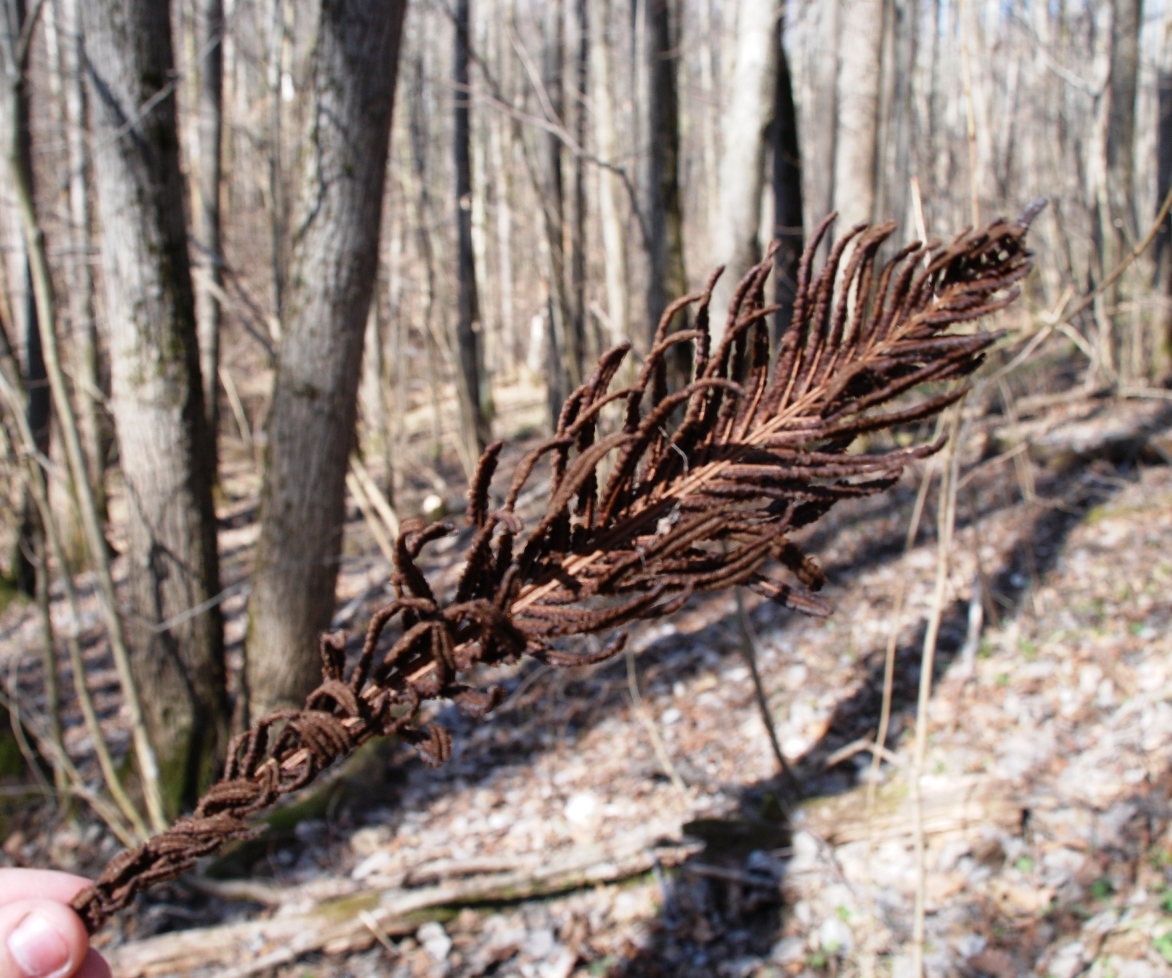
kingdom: Plantae
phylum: Tracheophyta
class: Polypodiopsida
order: Polypodiales
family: Onocleaceae
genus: Matteuccia
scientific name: Matteuccia struthiopteris
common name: Ostrich fern
